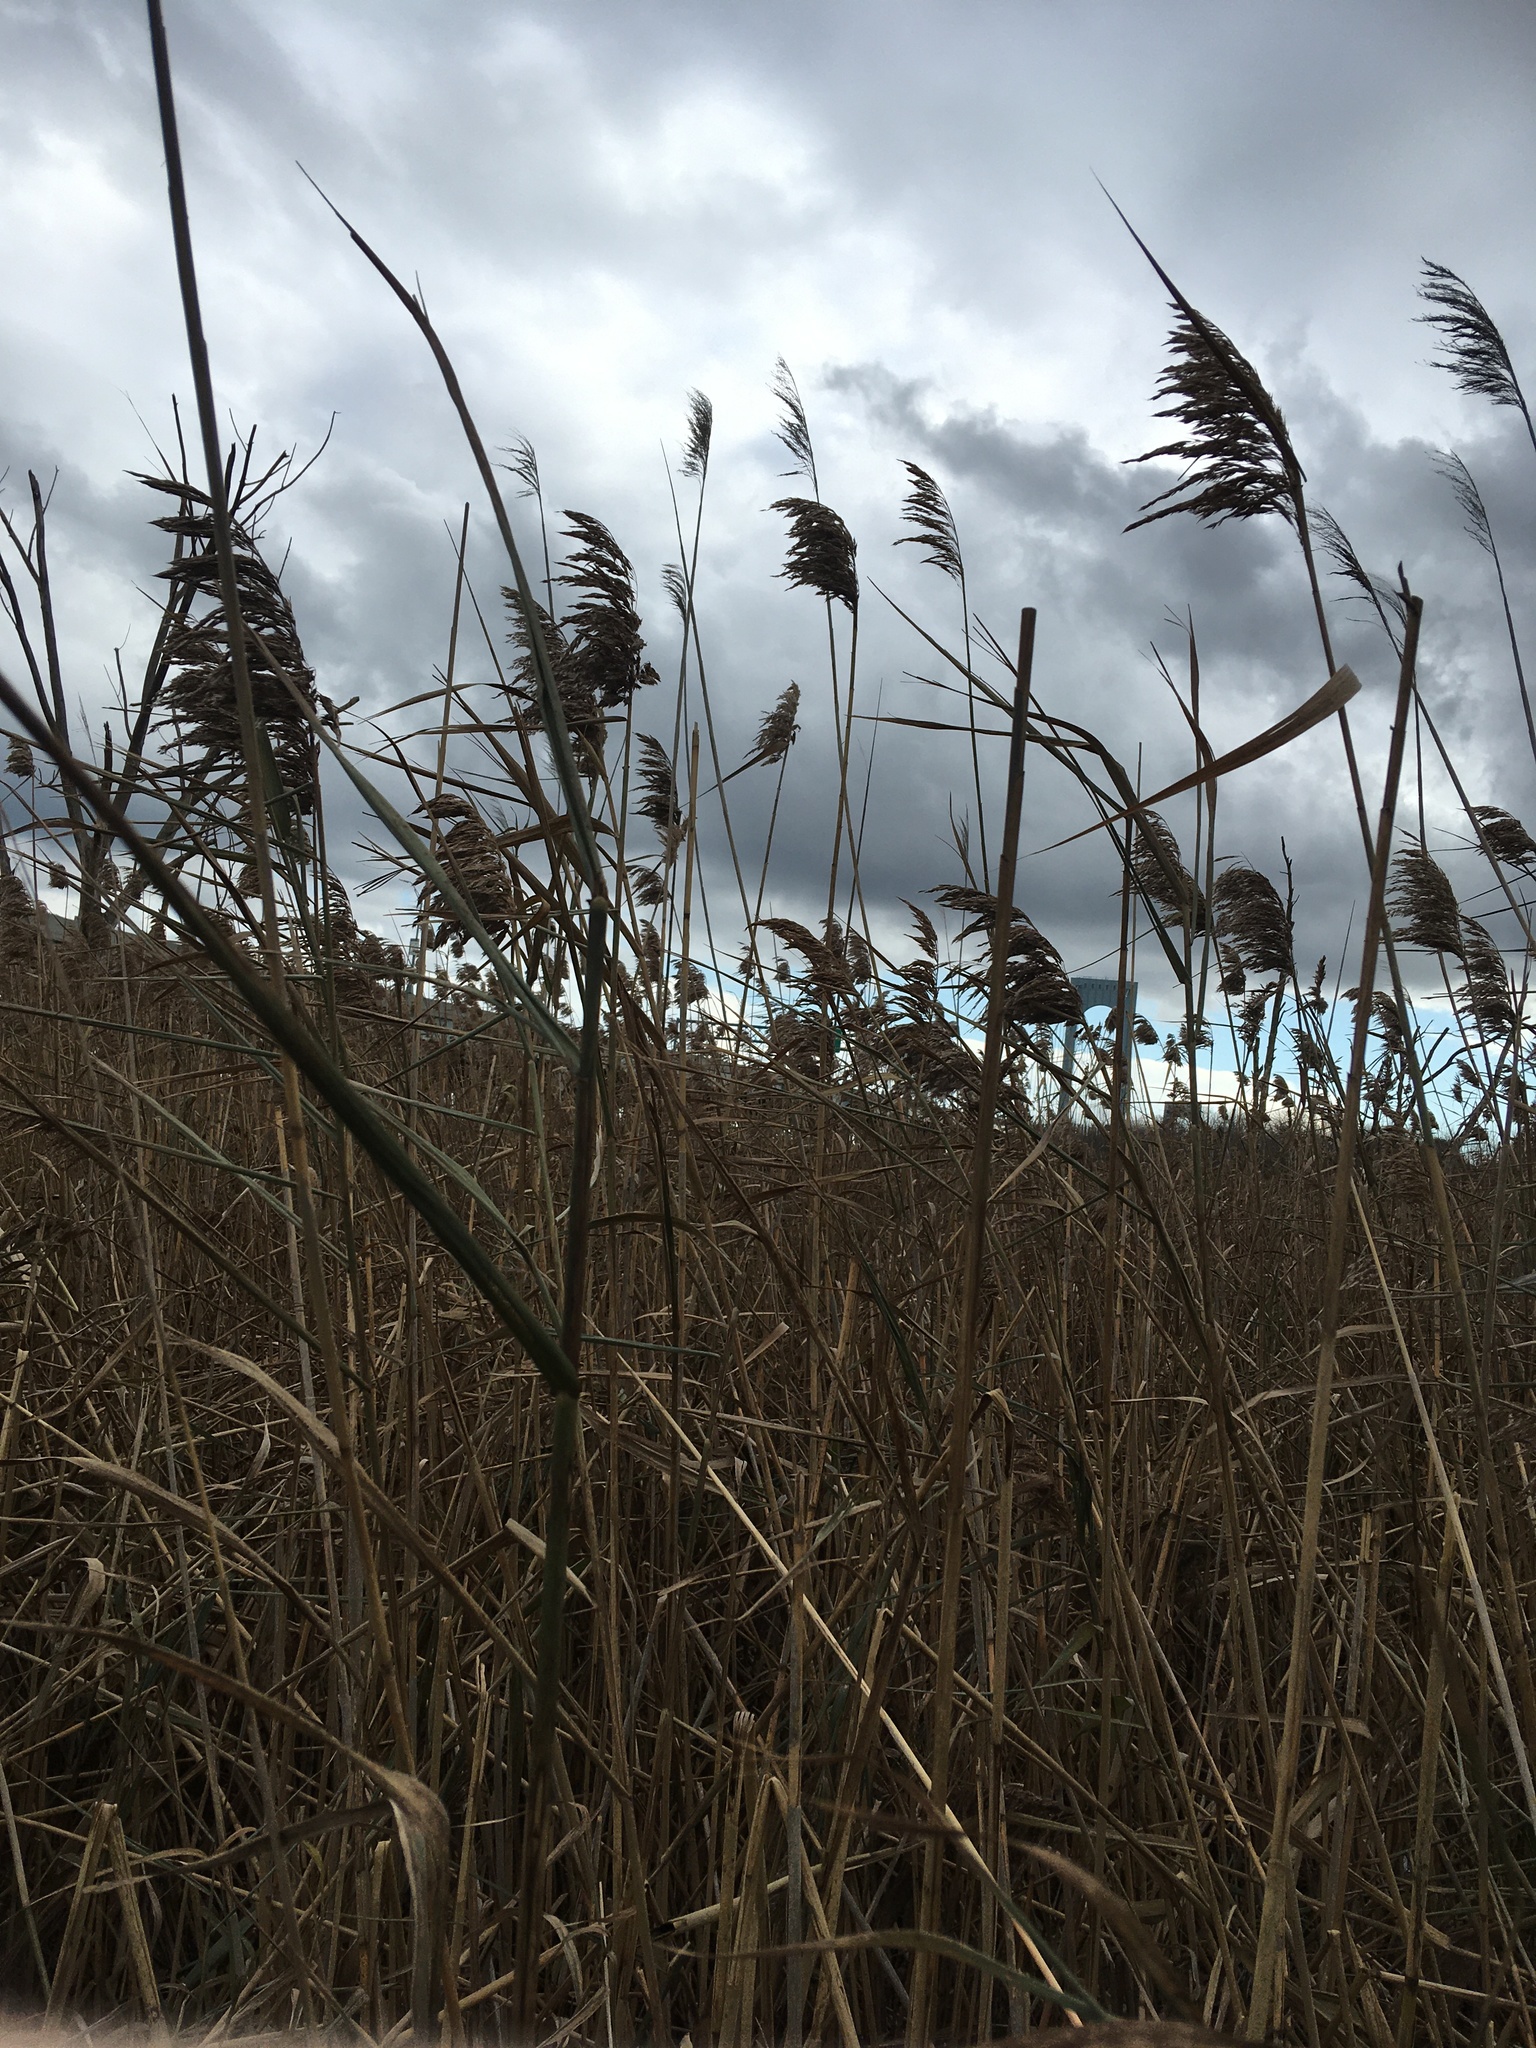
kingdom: Plantae
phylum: Tracheophyta
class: Liliopsida
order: Poales
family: Poaceae
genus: Phragmites
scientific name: Phragmites australis
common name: Common reed
